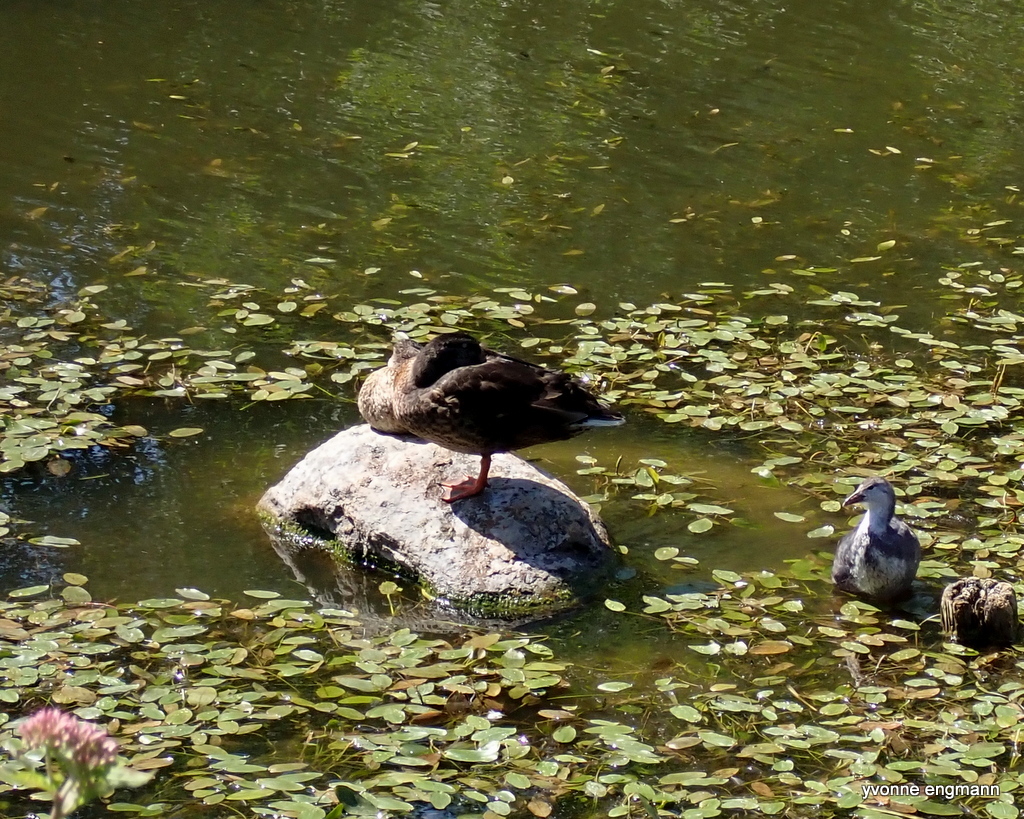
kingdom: Animalia
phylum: Chordata
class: Aves
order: Anseriformes
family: Anatidae
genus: Anas
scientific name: Anas platyrhynchos
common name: Mallard
